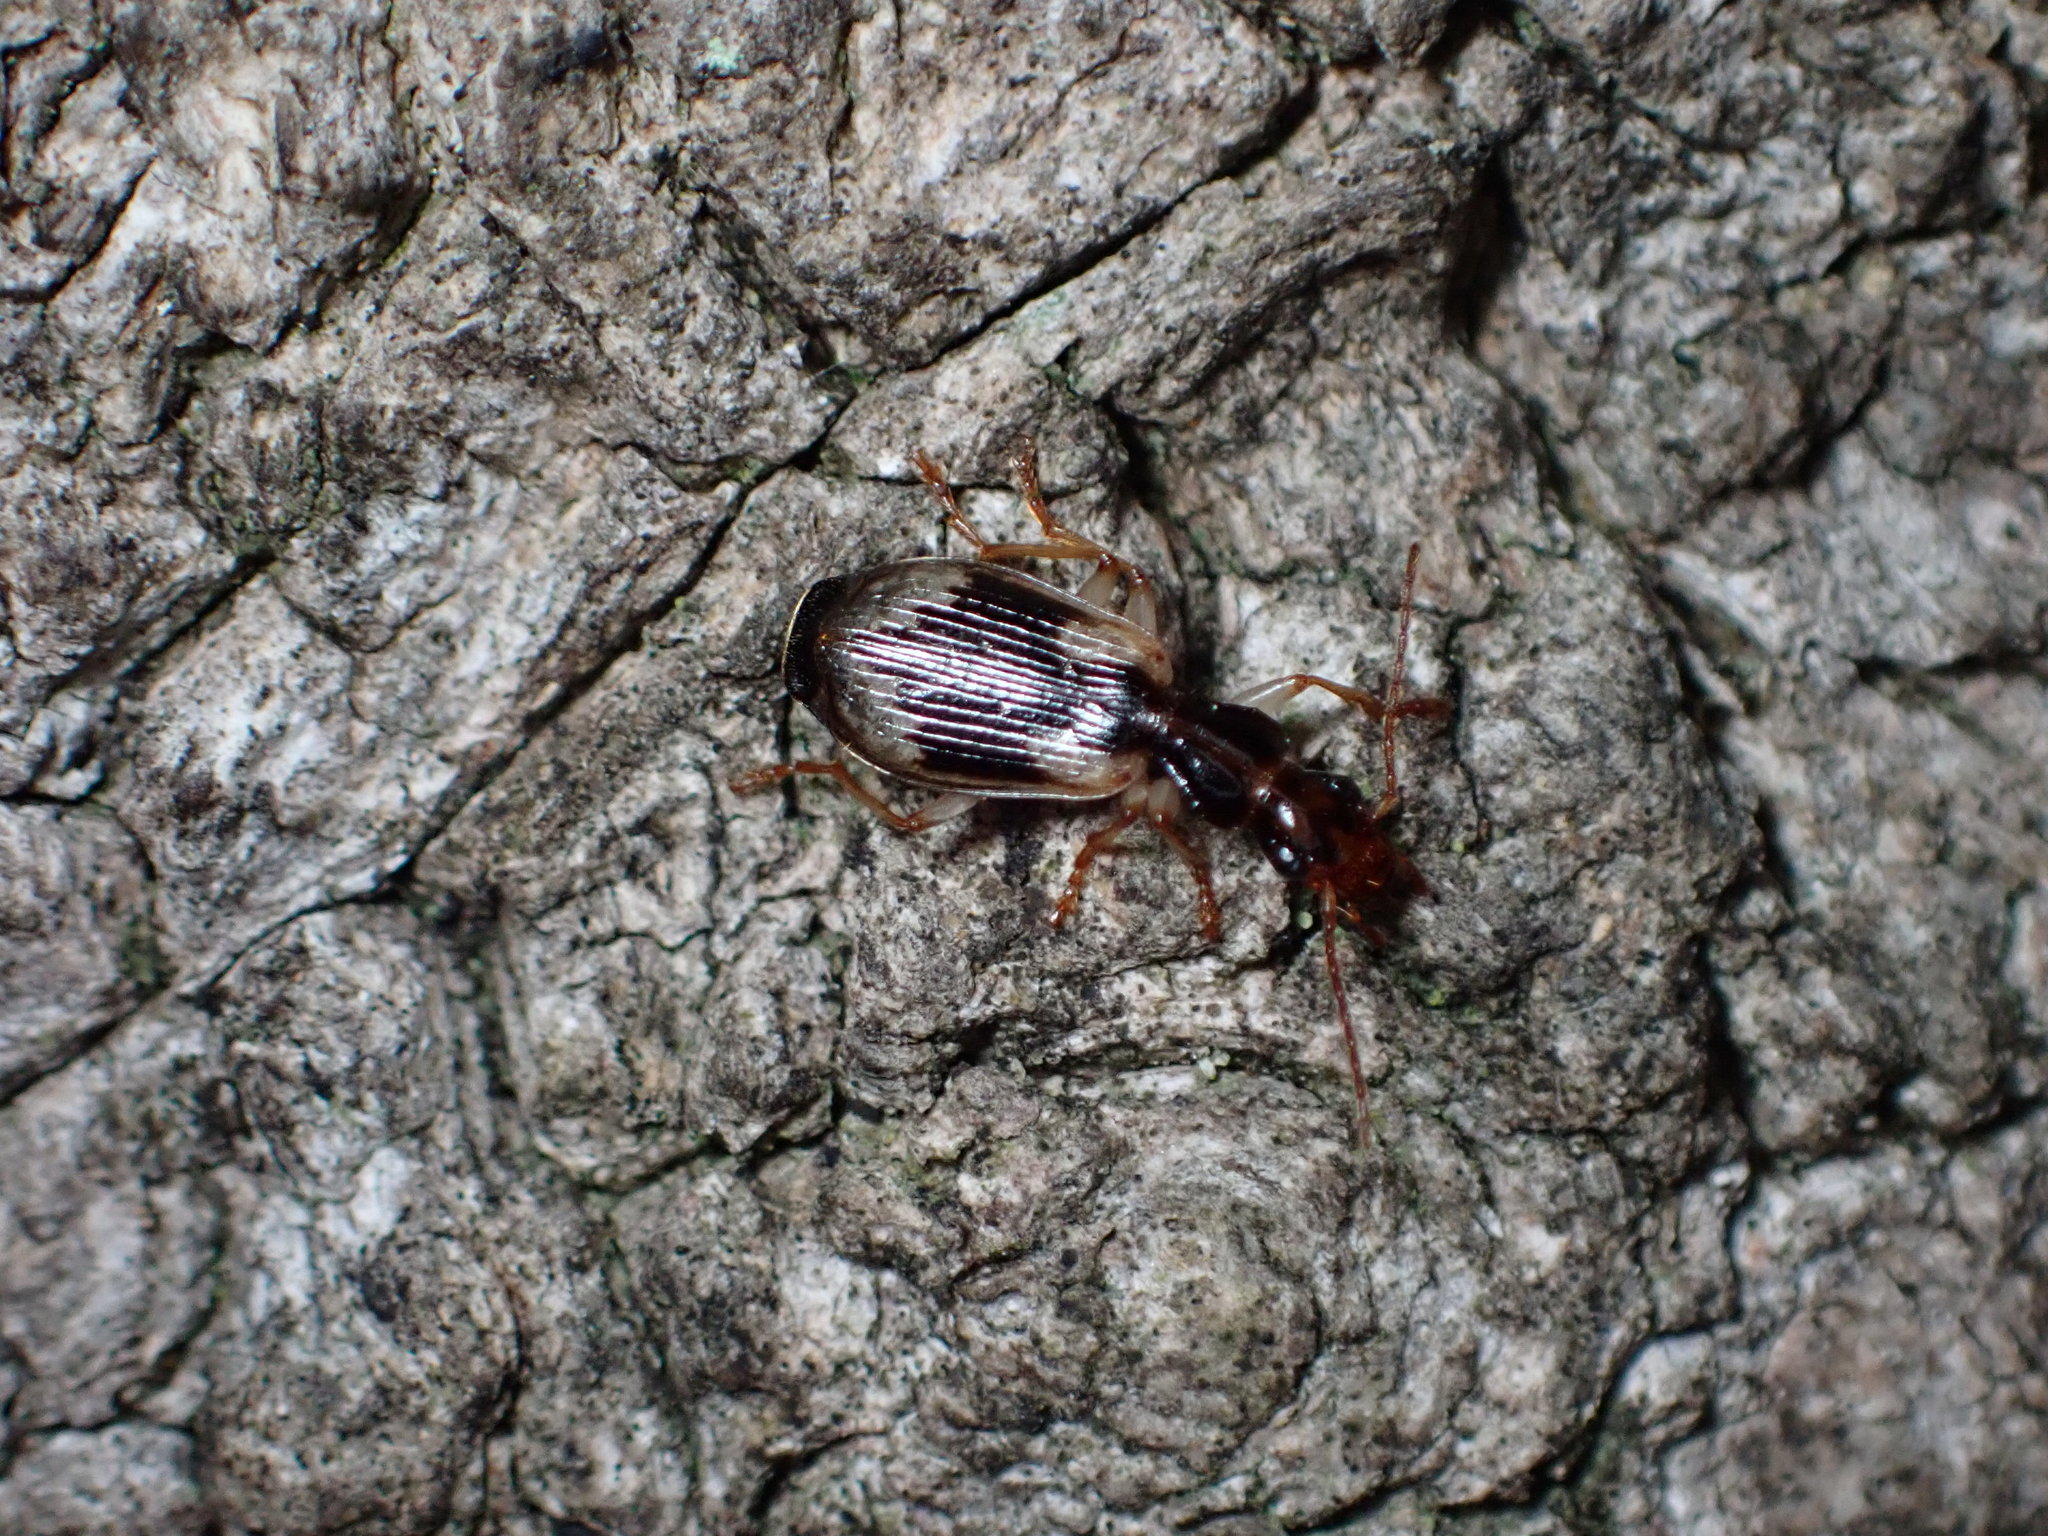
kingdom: Animalia
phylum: Arthropoda
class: Insecta
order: Coleoptera
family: Carabidae
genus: Demetrida
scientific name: Demetrida nasuta
